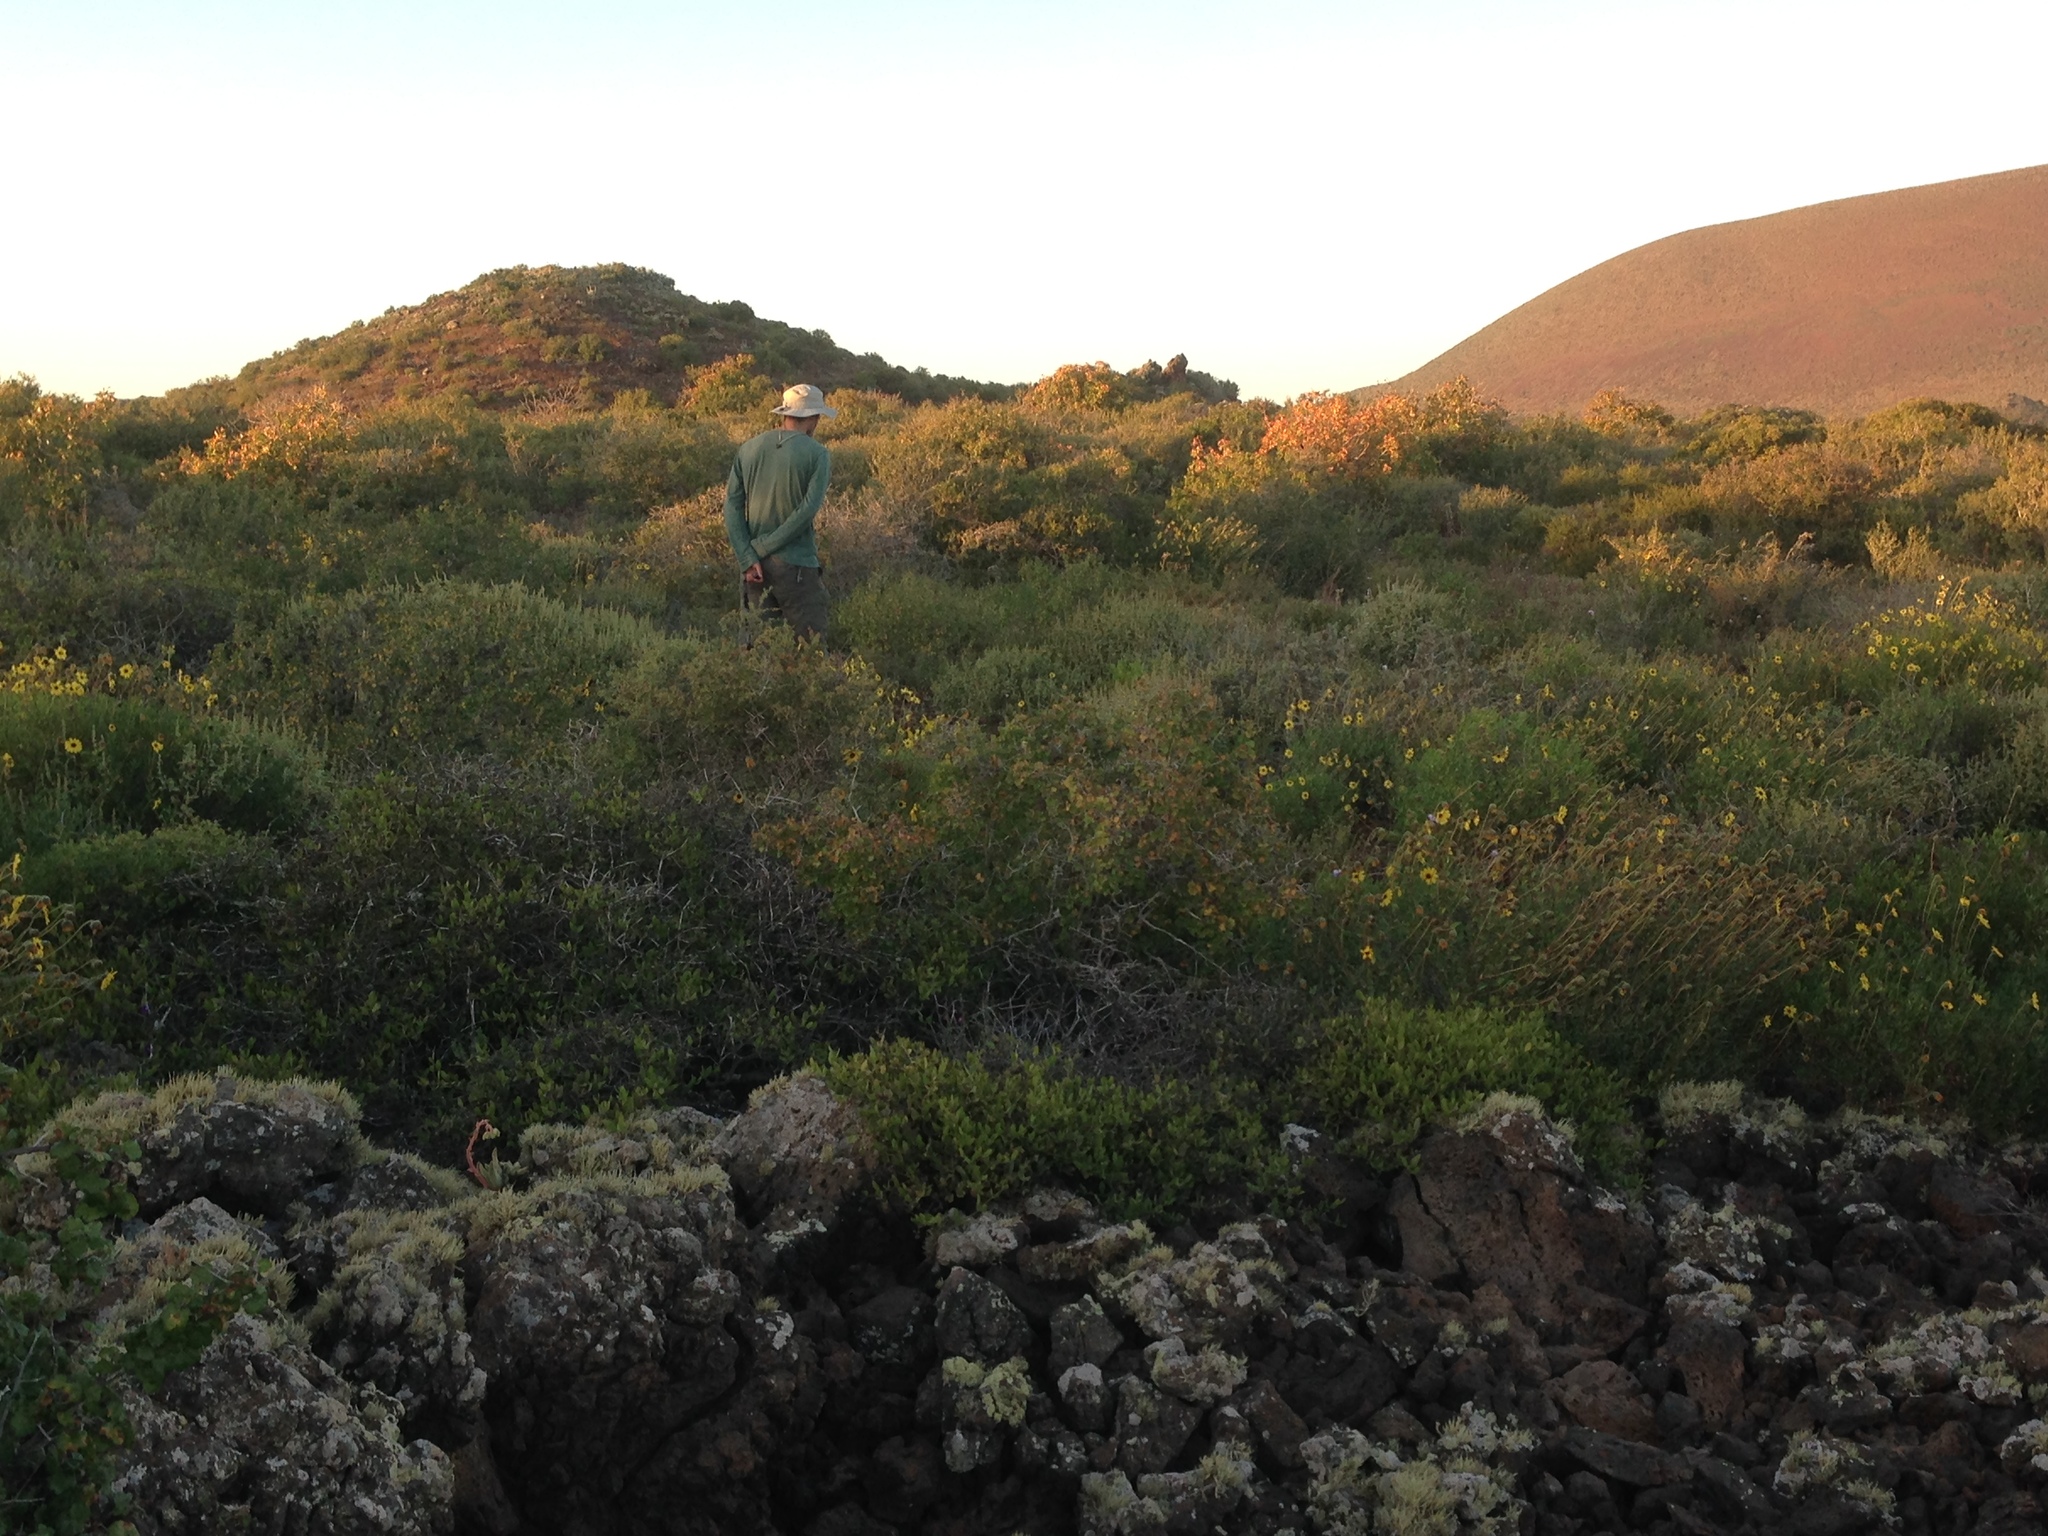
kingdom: Plantae
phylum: Tracheophyta
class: Magnoliopsida
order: Asterales
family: Asteraceae
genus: Encelia
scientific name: Encelia californica
